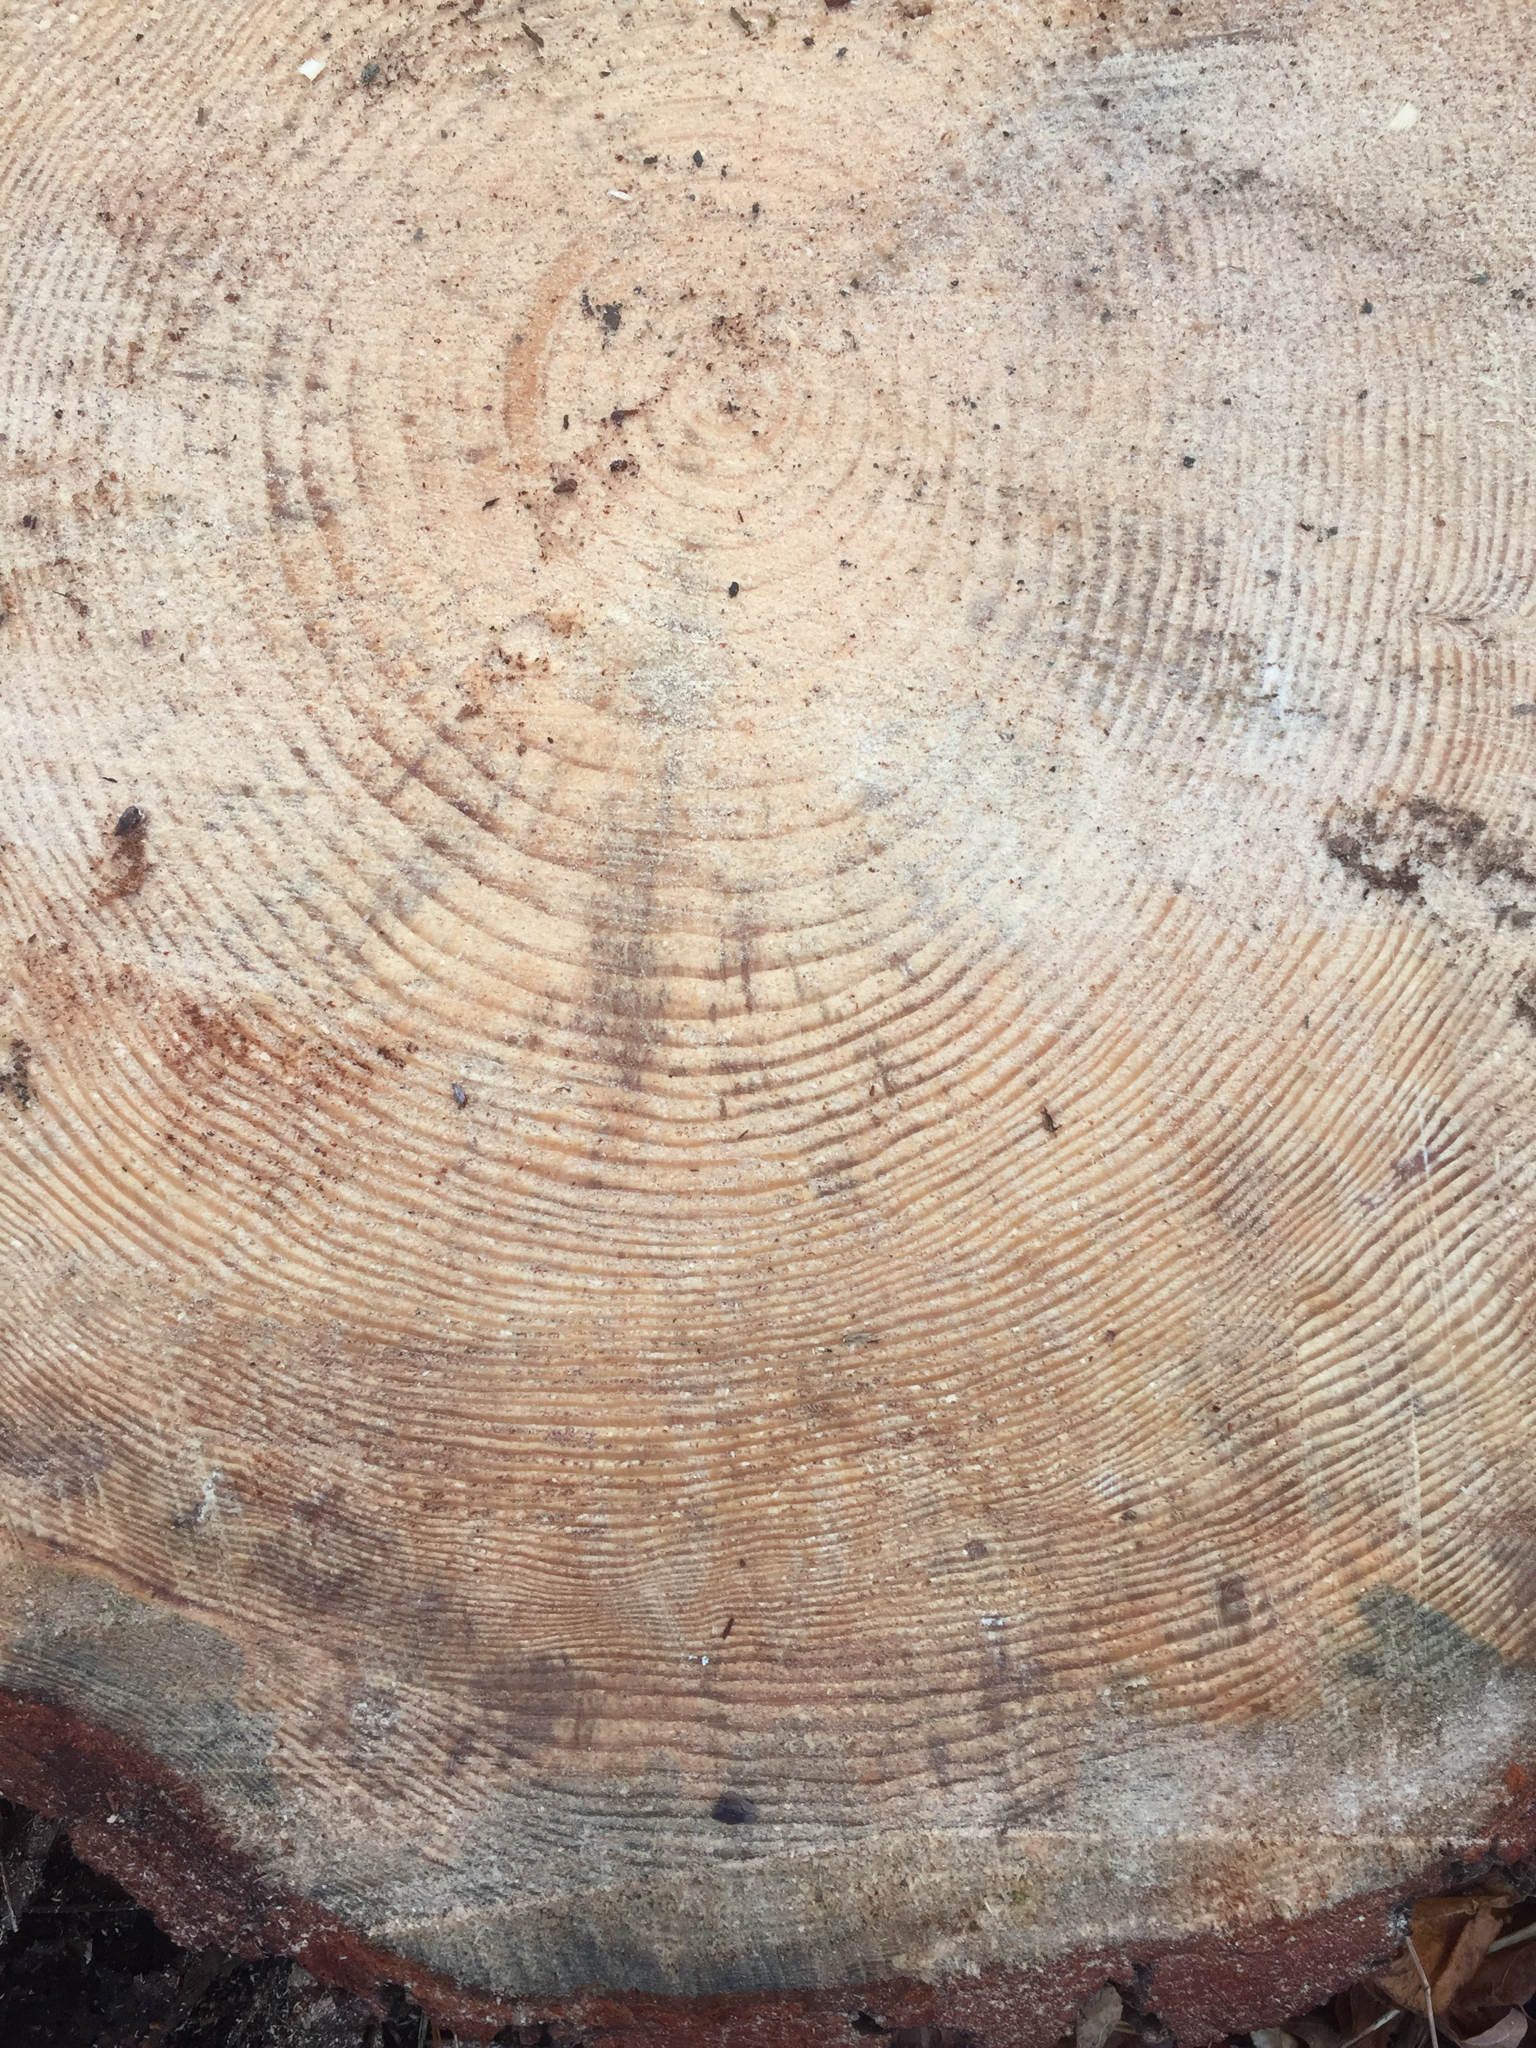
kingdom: Plantae
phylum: Tracheophyta
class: Pinopsida
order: Pinales
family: Pinaceae
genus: Pinus
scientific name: Pinus resinosa
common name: Norway pine
